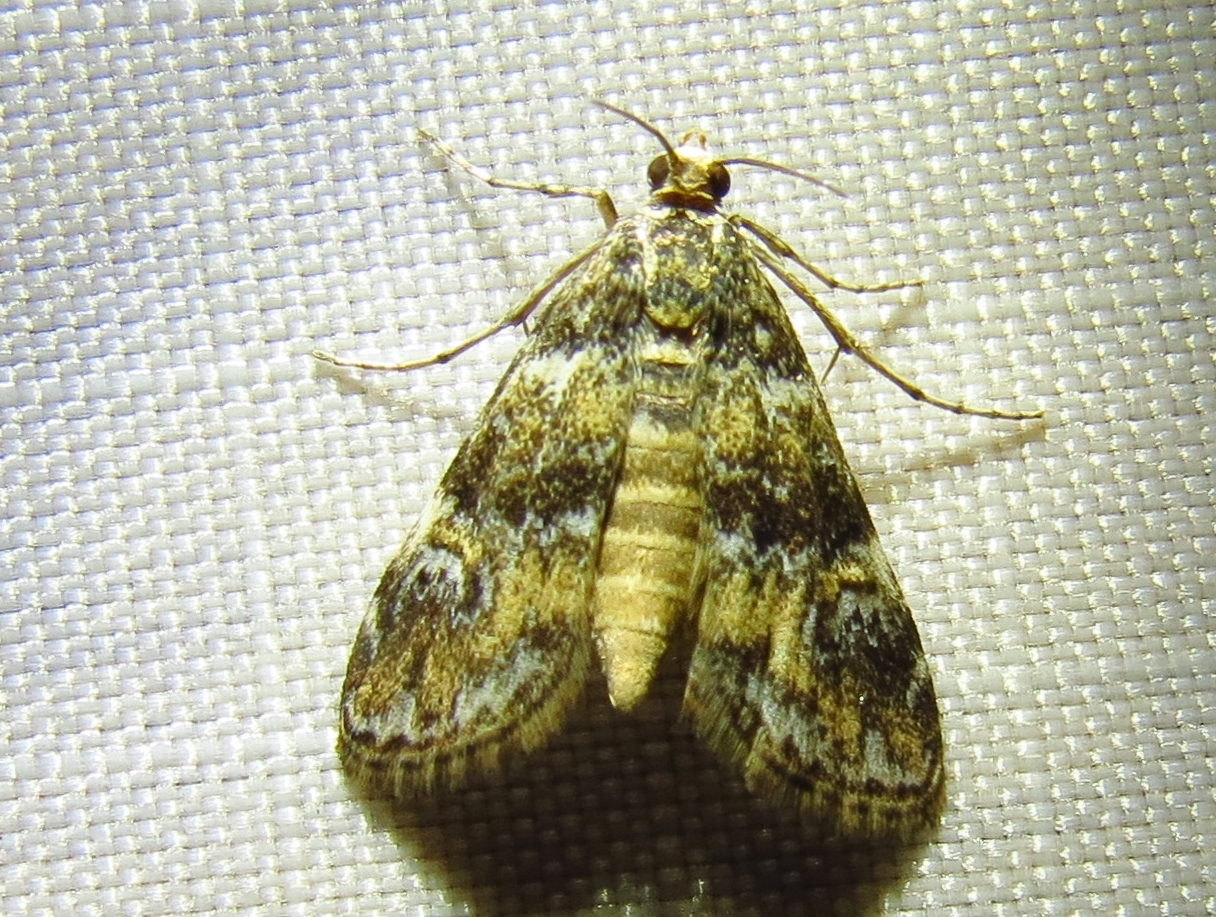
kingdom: Animalia
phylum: Arthropoda
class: Insecta
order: Lepidoptera
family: Crambidae
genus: Elophila
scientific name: Elophila obliteralis
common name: Waterlily leafcutter moth
